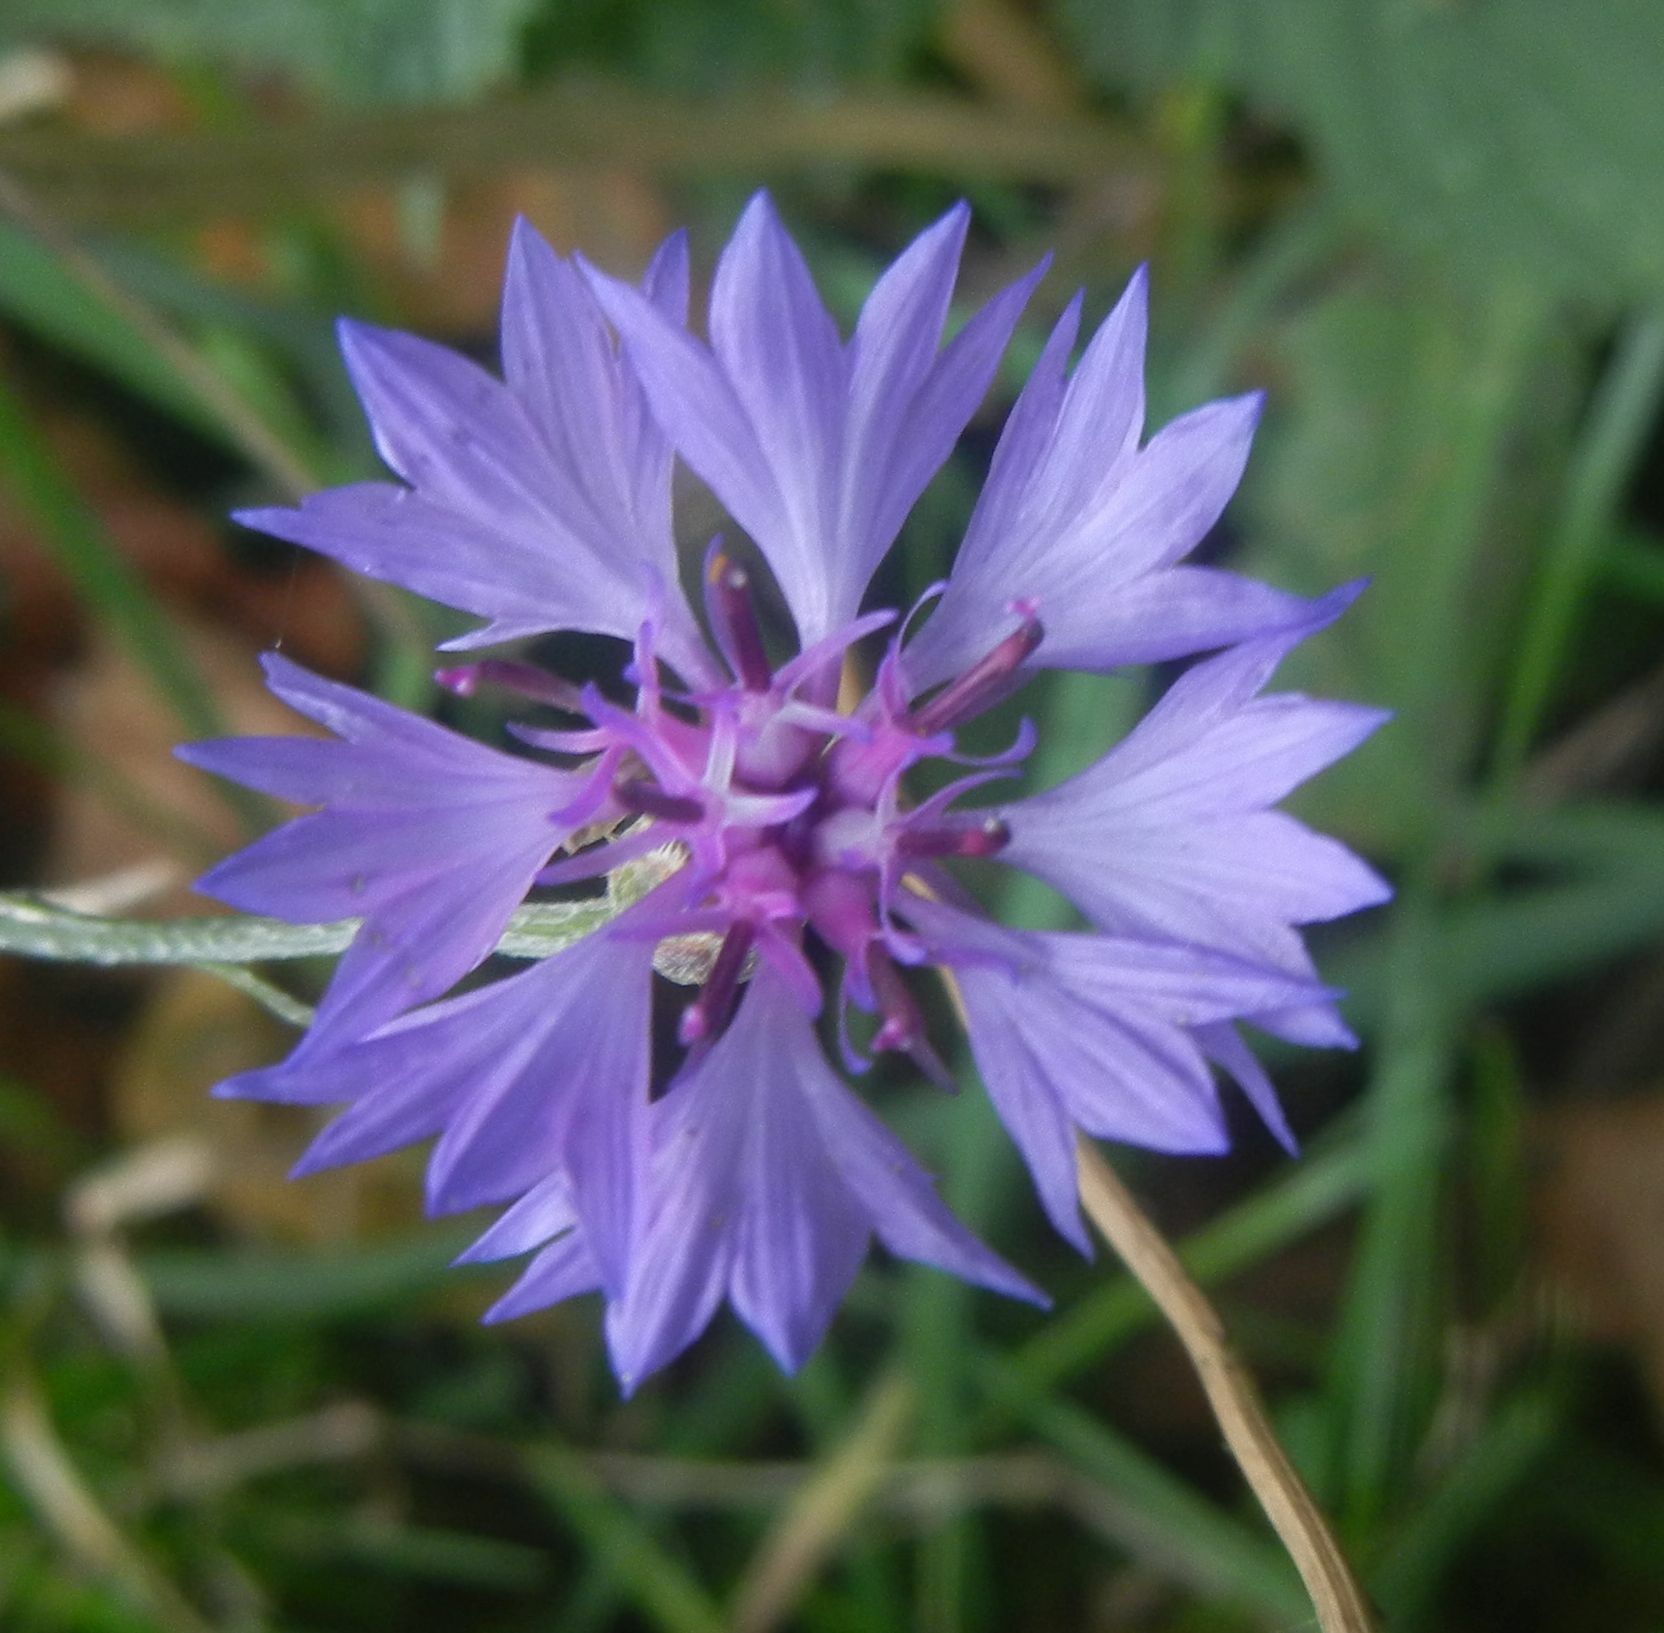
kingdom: Plantae
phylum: Tracheophyta
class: Magnoliopsida
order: Asterales
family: Asteraceae
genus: Centaurea
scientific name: Centaurea cyanus
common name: Cornflower
